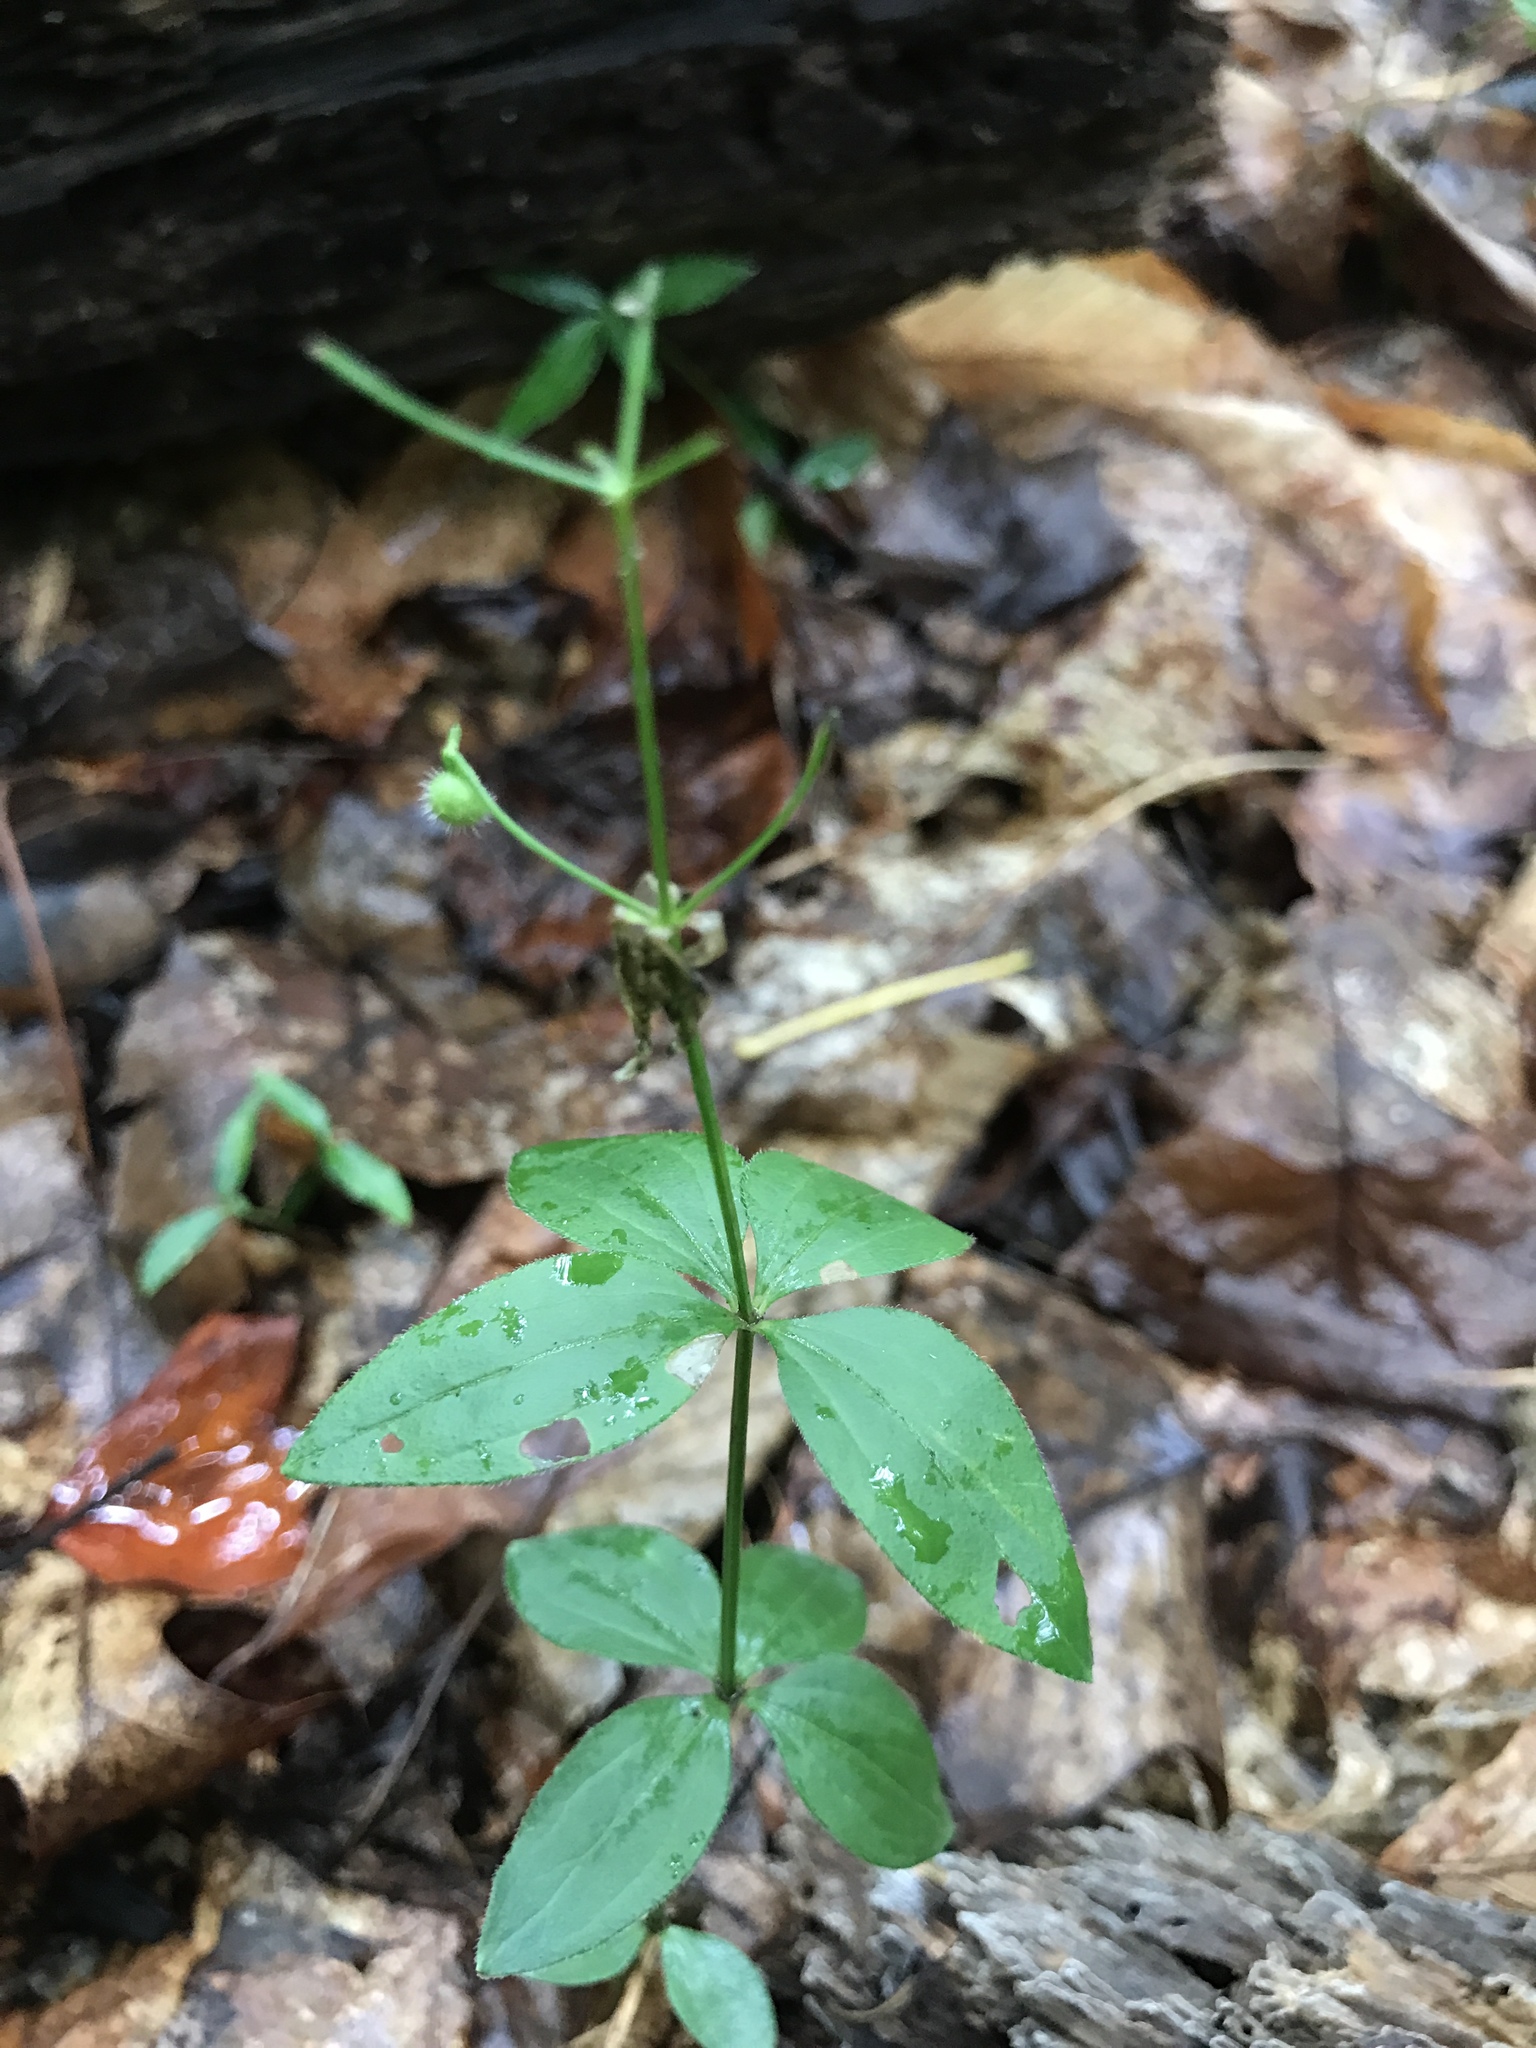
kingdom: Plantae
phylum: Tracheophyta
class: Magnoliopsida
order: Gentianales
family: Rubiaceae
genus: Galium
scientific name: Galium circaezans
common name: Forest bedstraw
